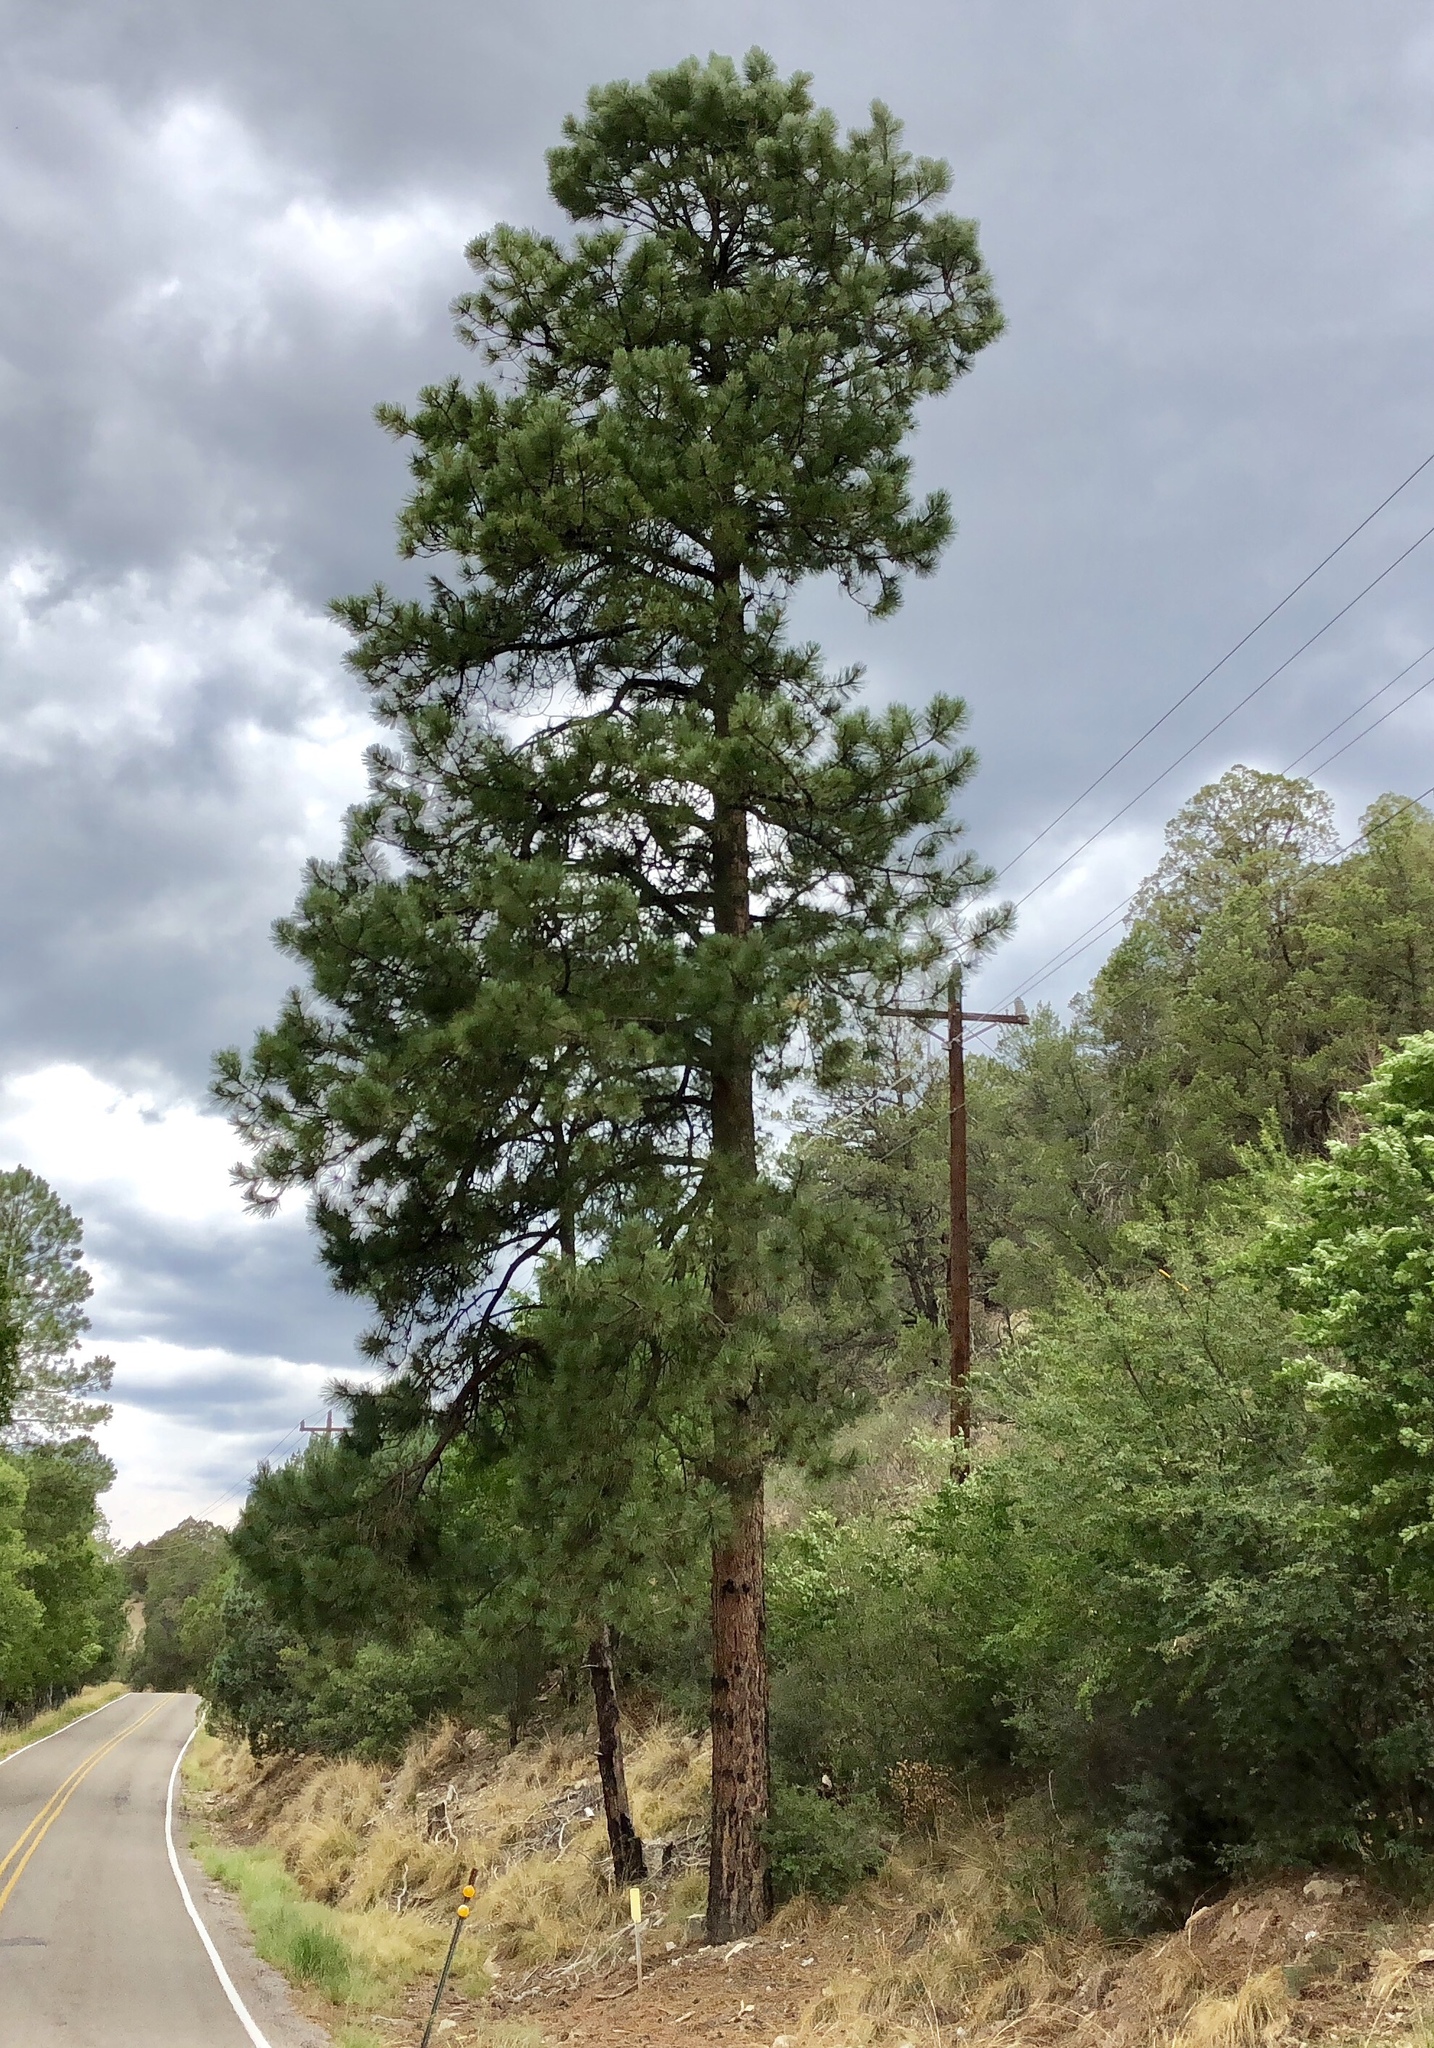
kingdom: Plantae
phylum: Tracheophyta
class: Pinopsida
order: Pinales
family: Pinaceae
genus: Pinus
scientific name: Pinus ponderosa
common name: Western yellow-pine
